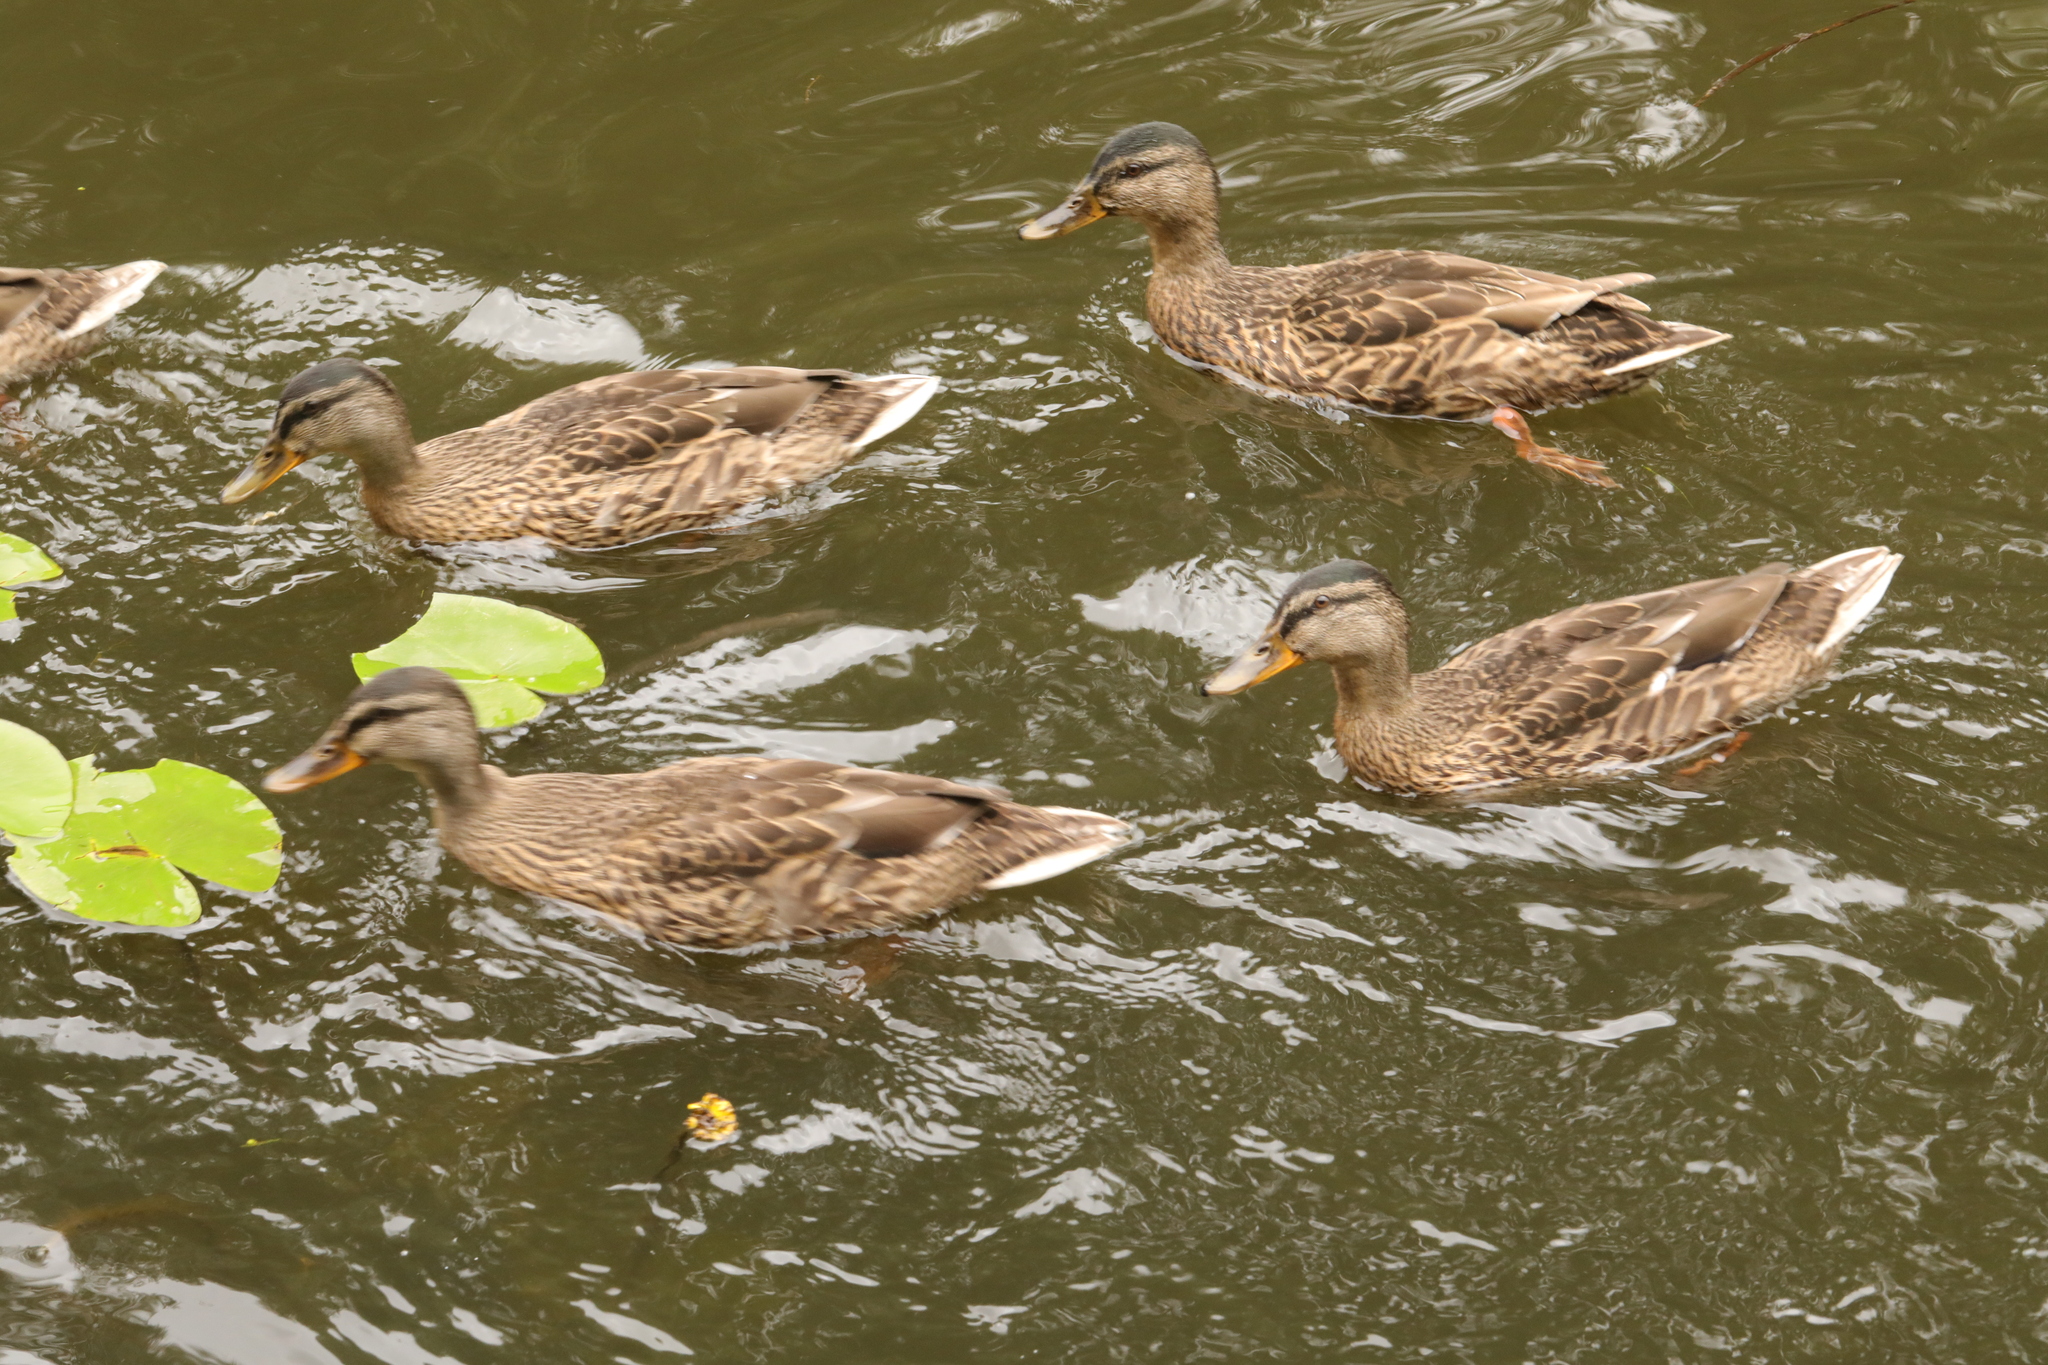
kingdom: Animalia
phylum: Chordata
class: Aves
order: Anseriformes
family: Anatidae
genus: Anas
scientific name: Anas platyrhynchos
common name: Mallard
